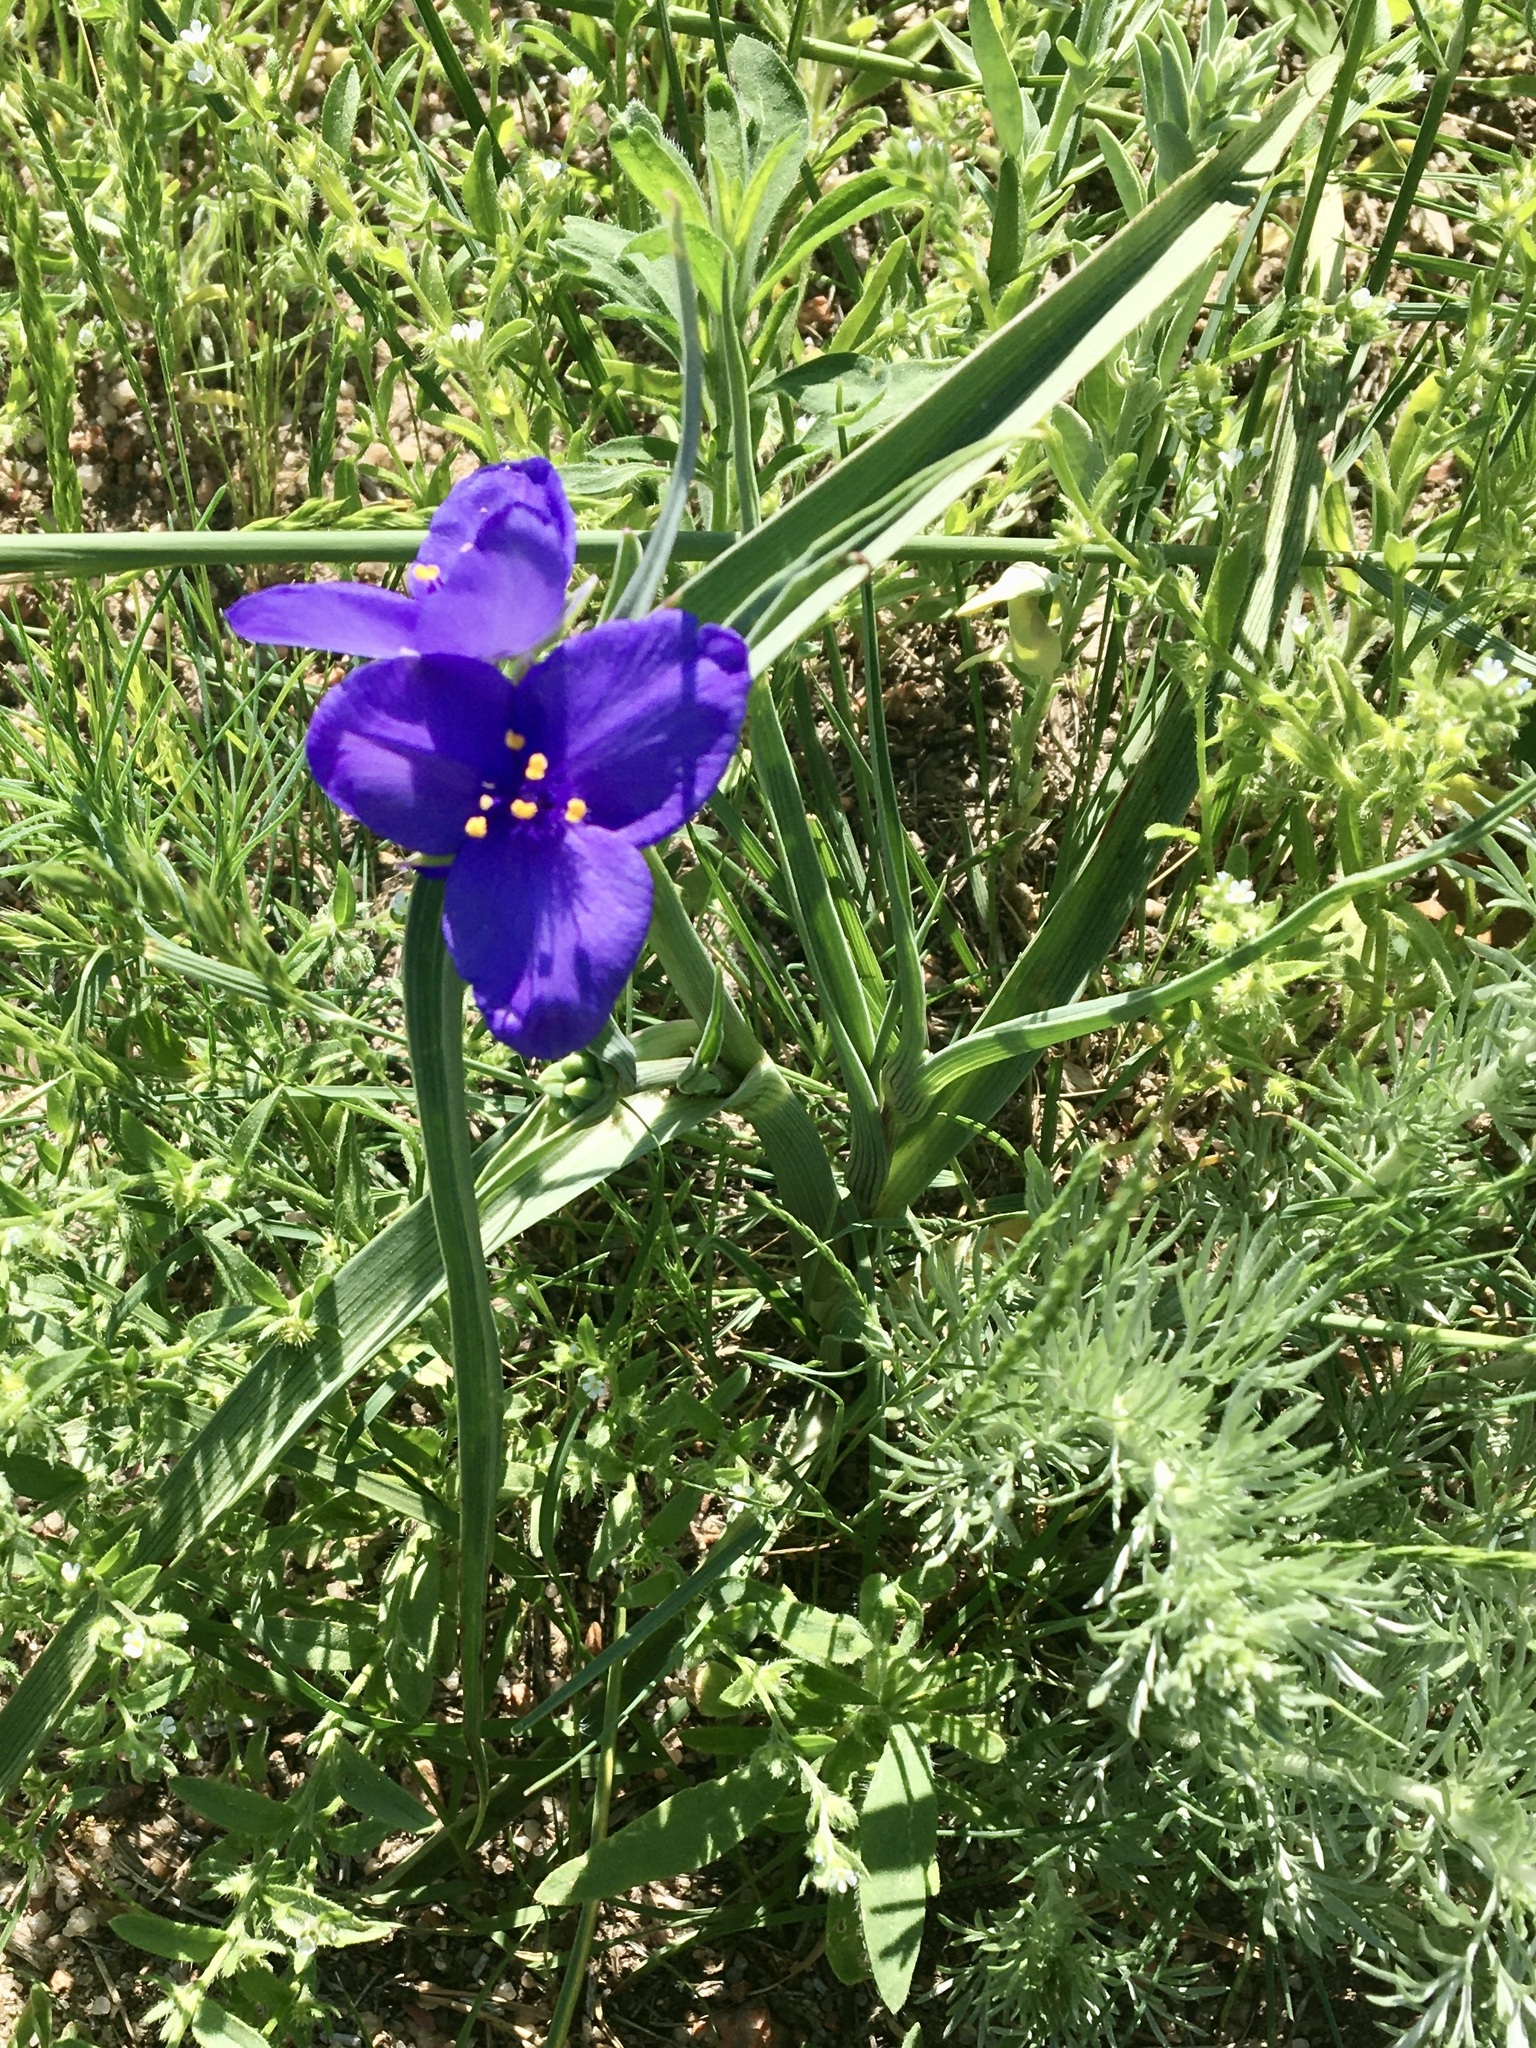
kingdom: Plantae
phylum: Tracheophyta
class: Liliopsida
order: Commelinales
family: Commelinaceae
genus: Tradescantia
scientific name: Tradescantia occidentalis
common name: Prairie spiderwort
